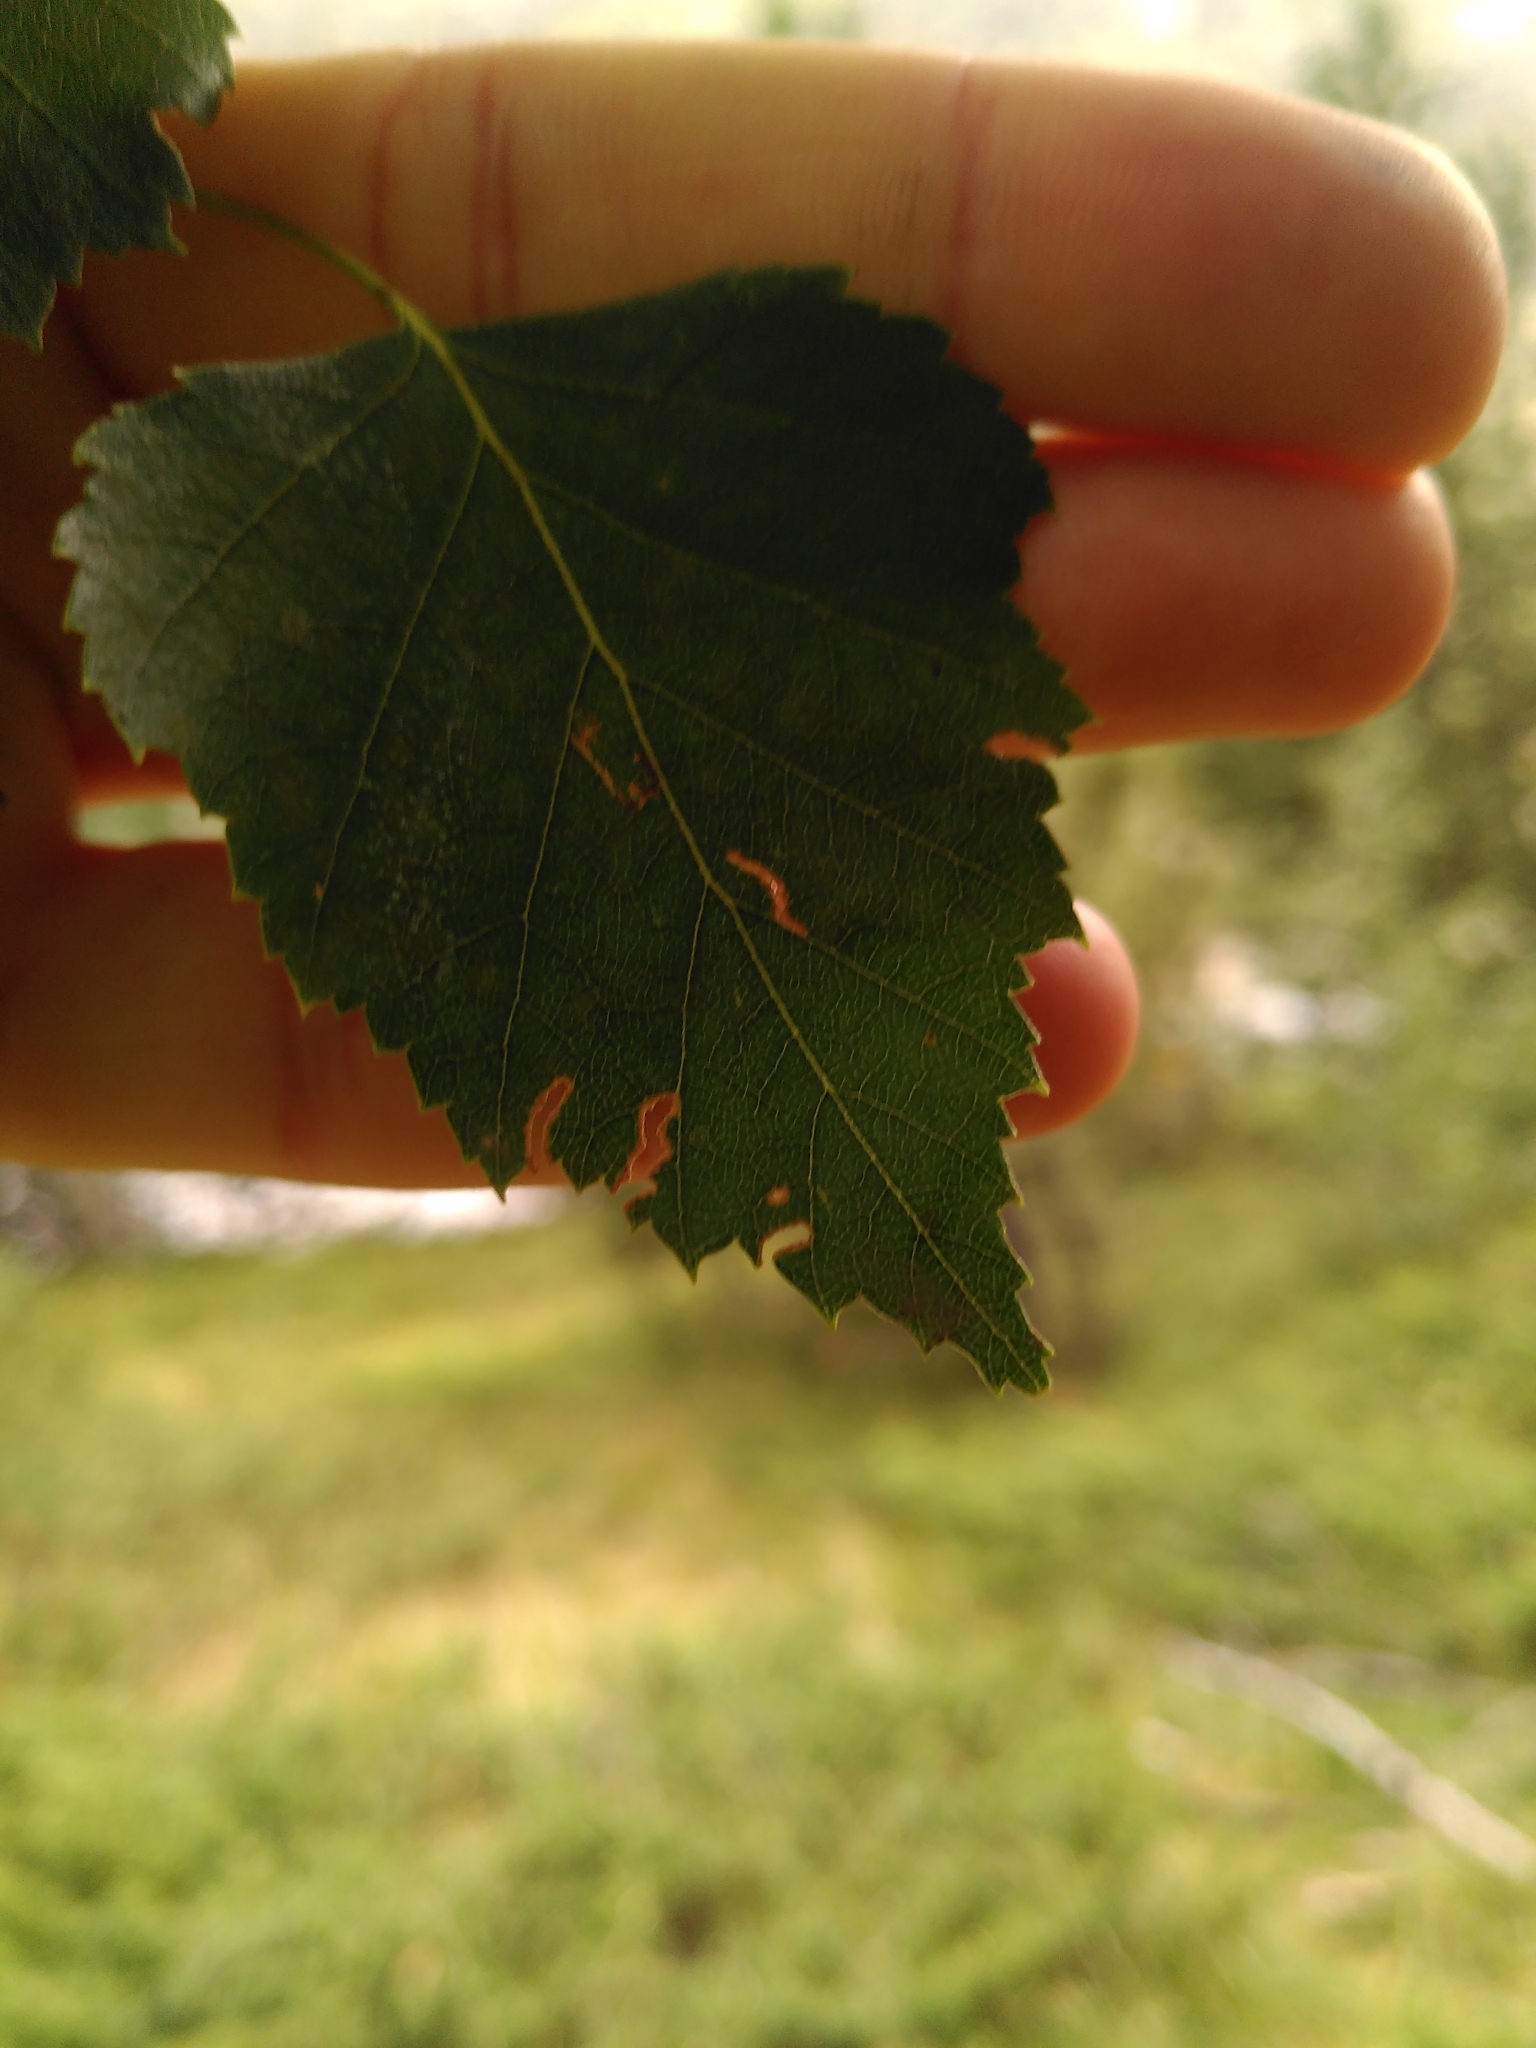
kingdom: Plantae
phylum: Tracheophyta
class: Magnoliopsida
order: Fagales
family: Betulaceae
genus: Betula
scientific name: Betula pendula
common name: Silver birch
